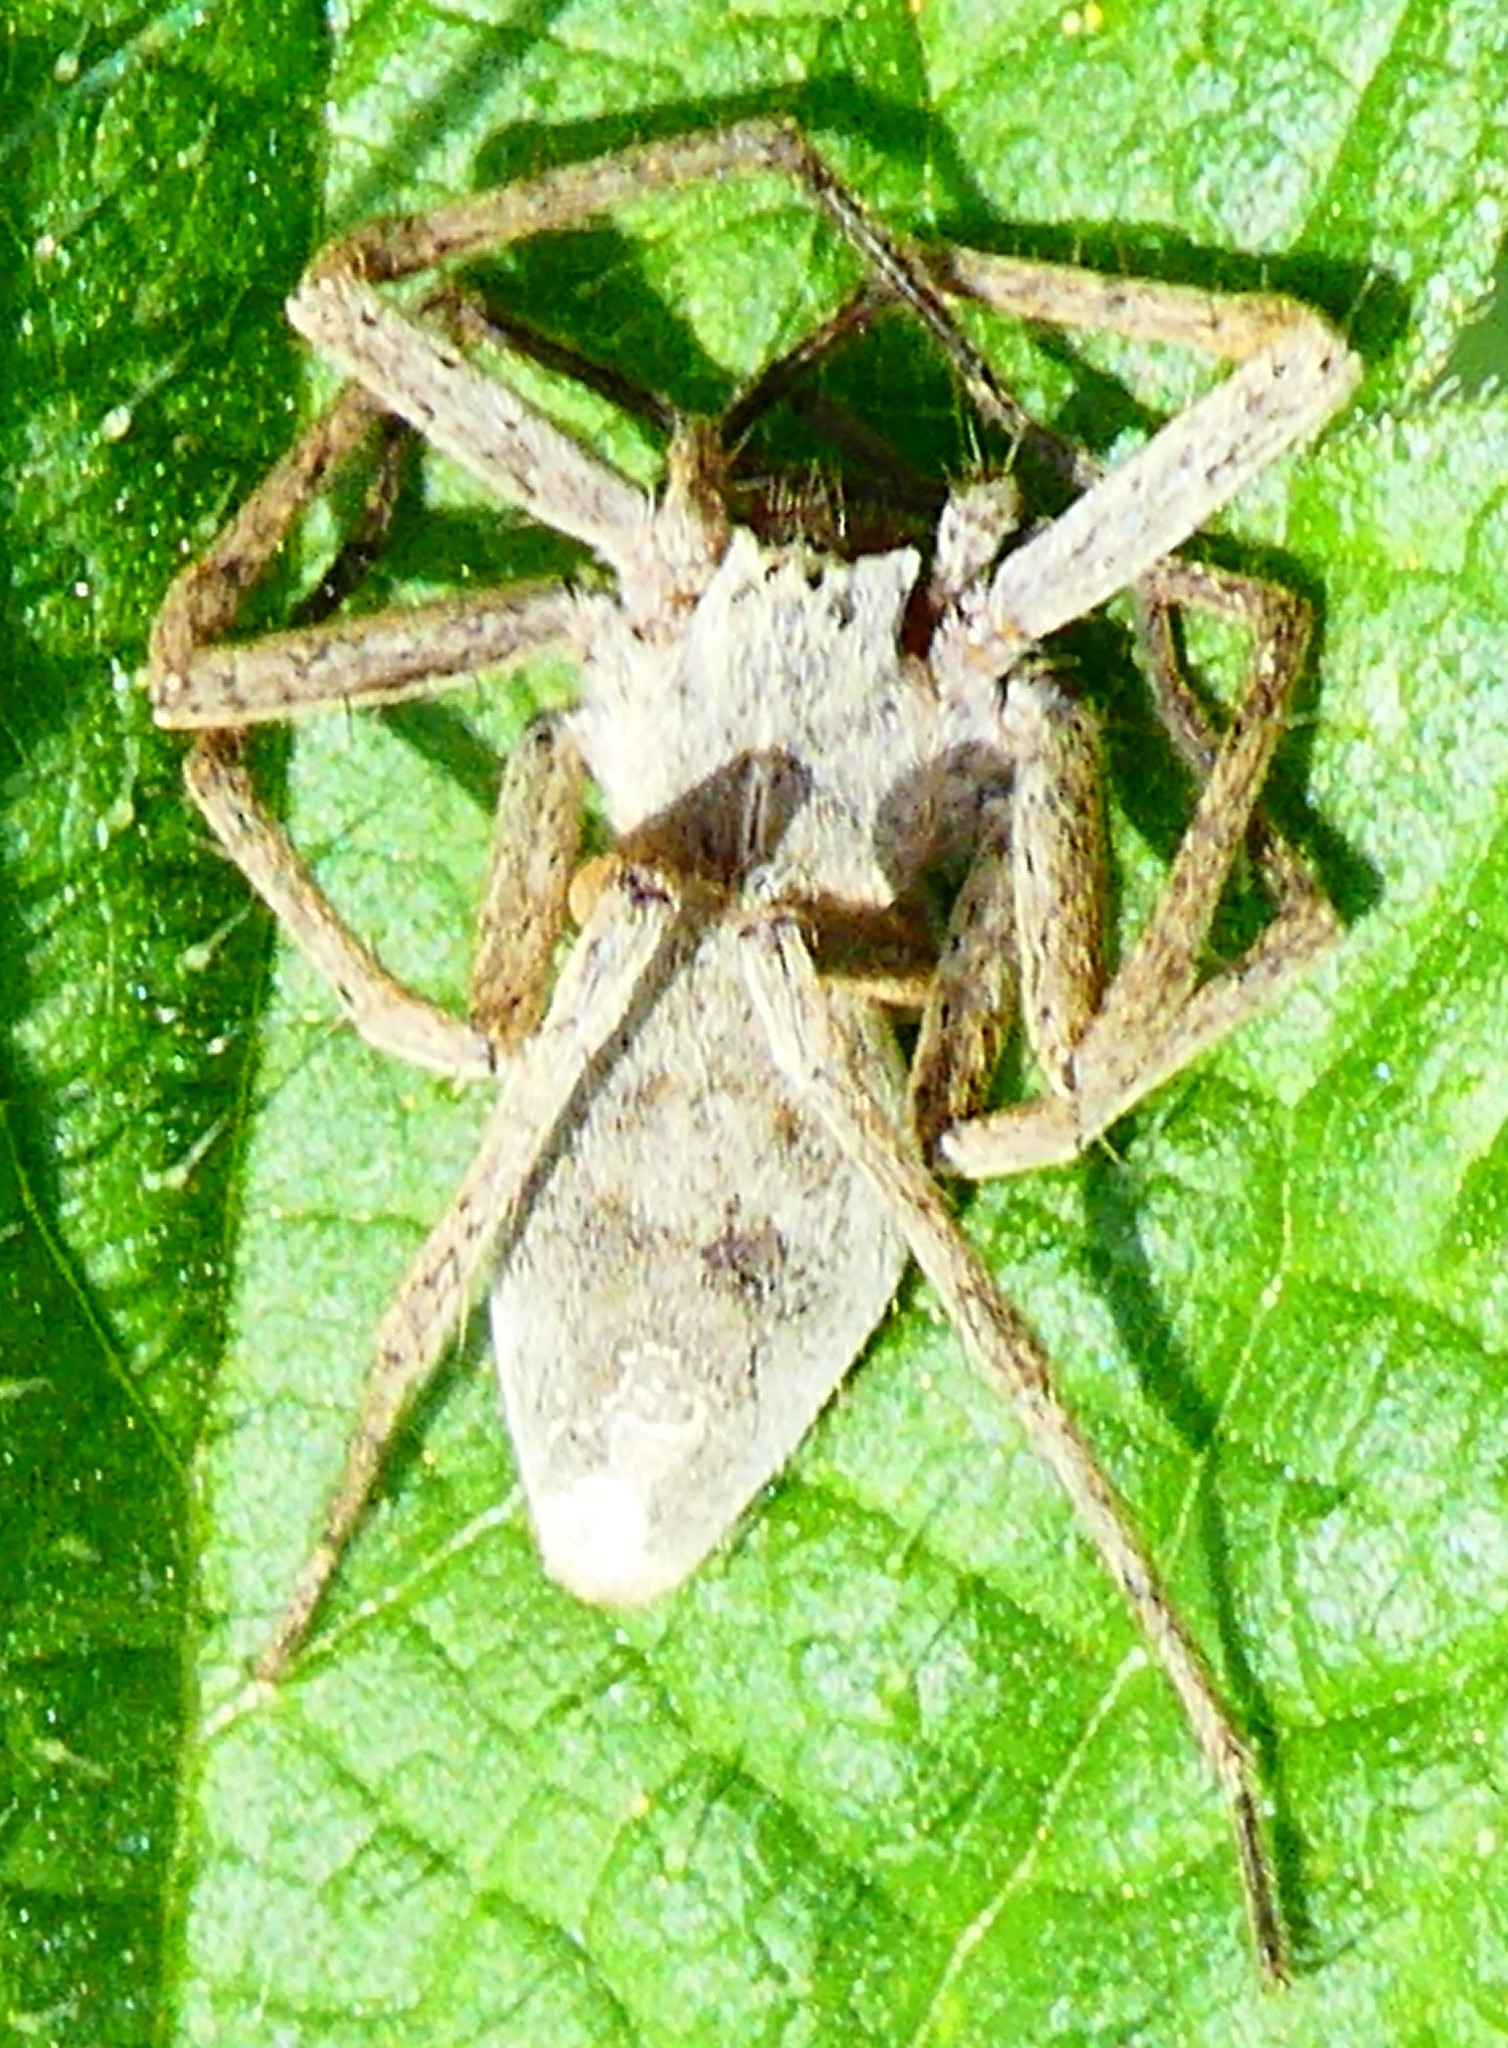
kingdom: Animalia
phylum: Arthropoda
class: Arachnida
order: Araneae
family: Pisauridae
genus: Pisaura
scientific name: Pisaura mirabilis
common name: Tent spider
